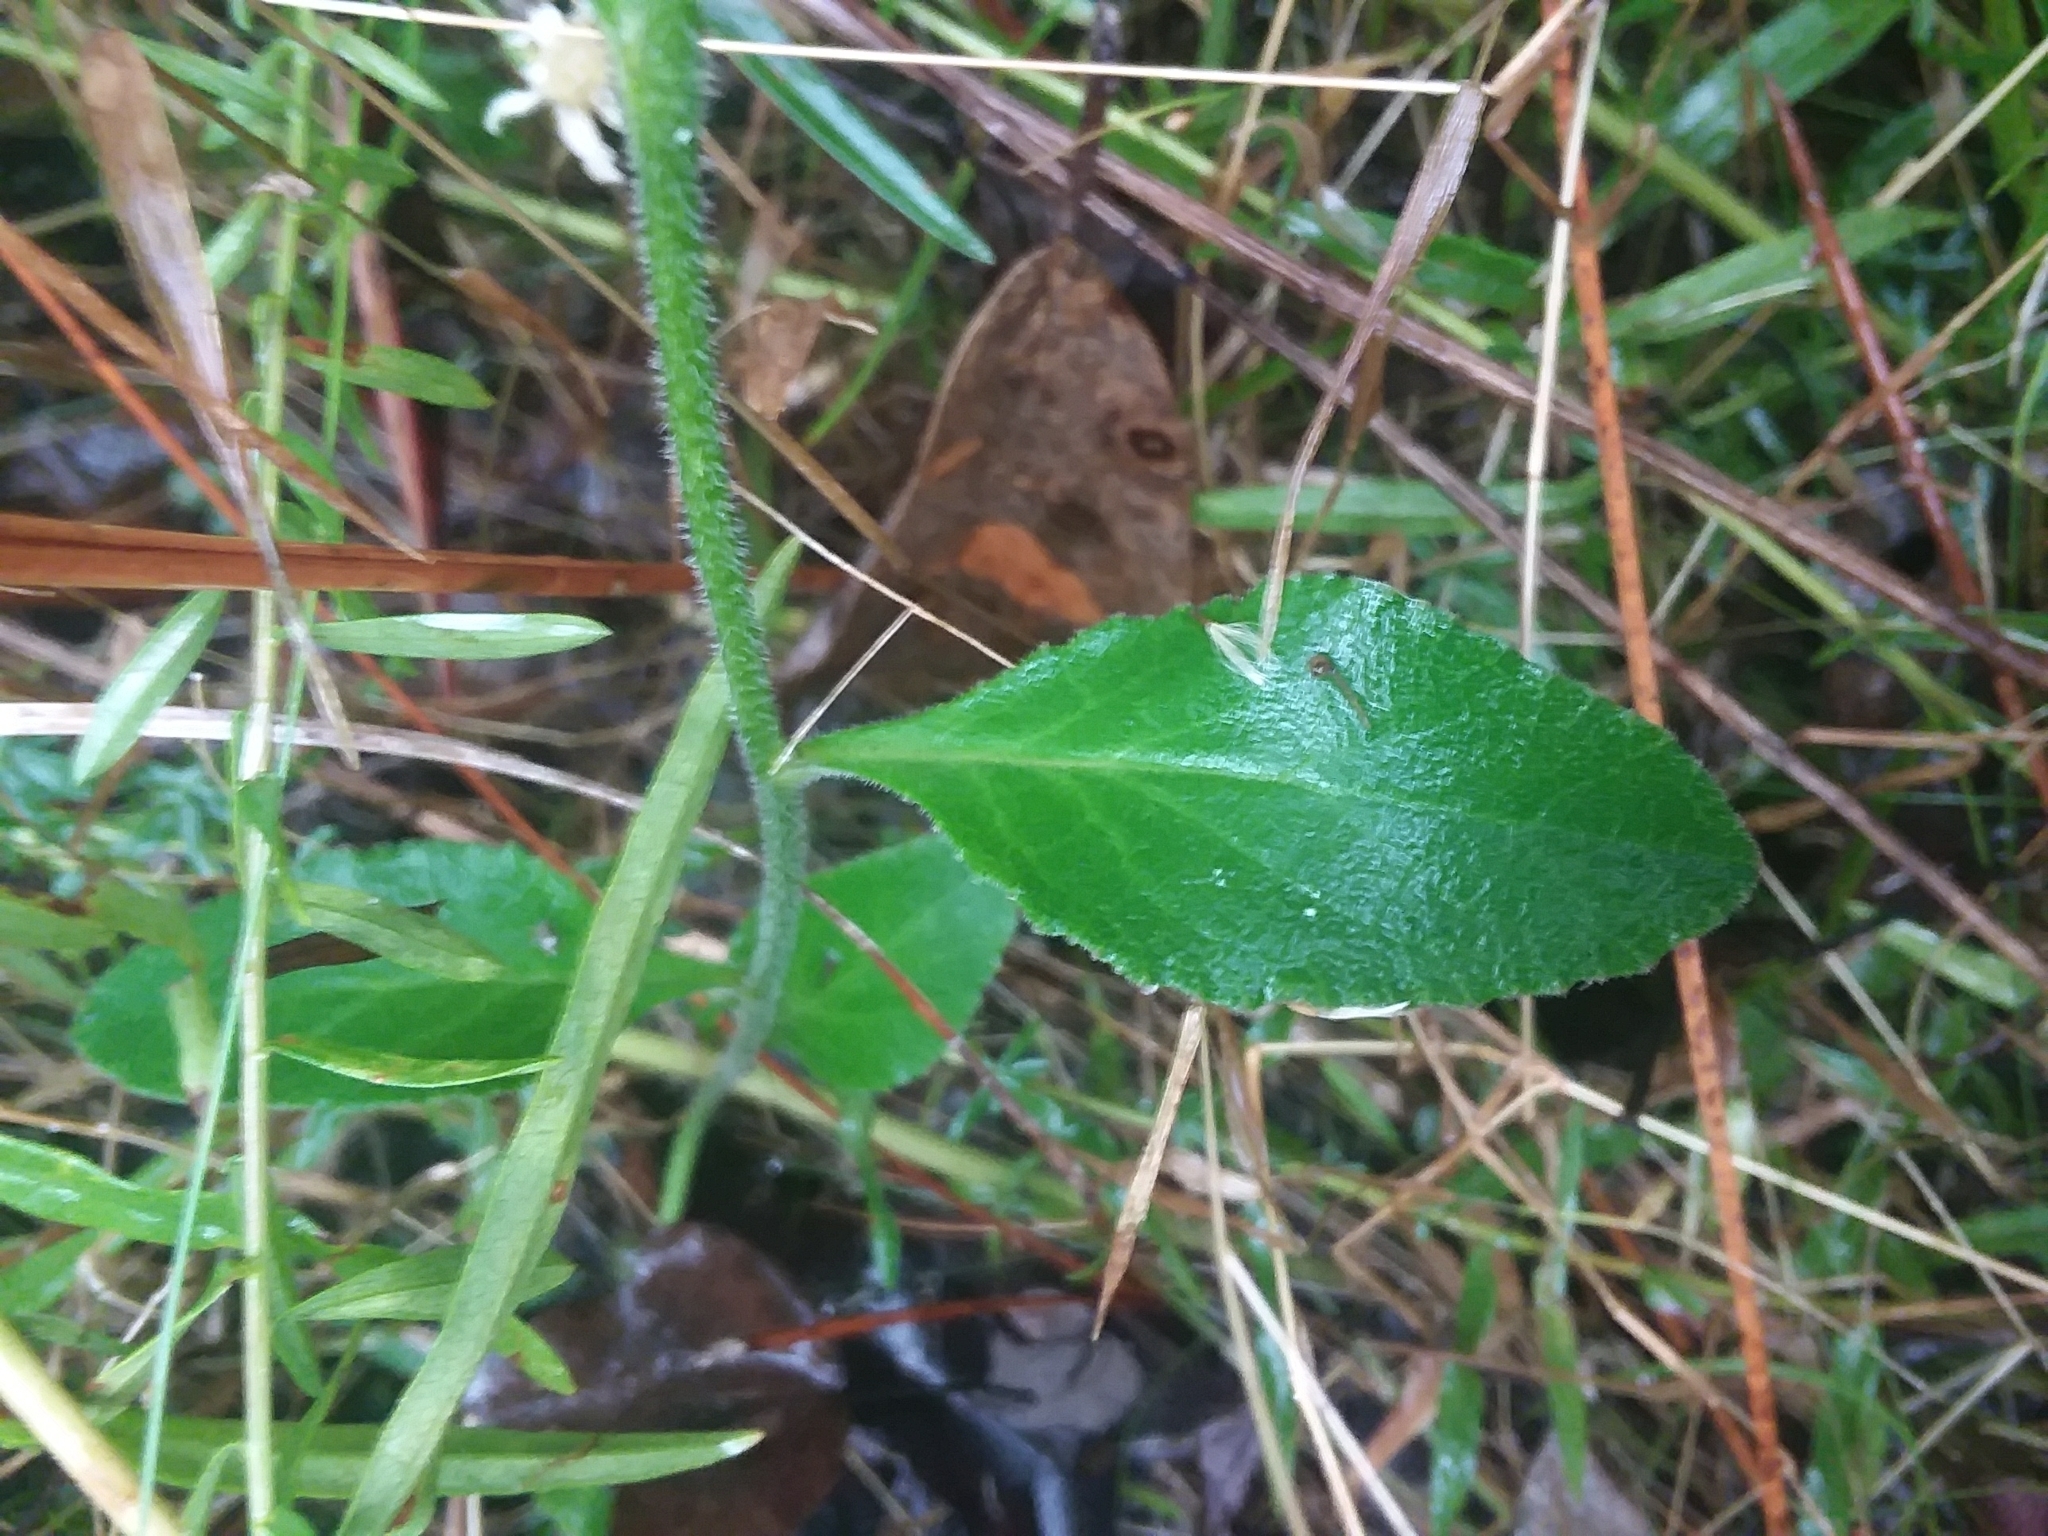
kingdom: Plantae
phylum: Tracheophyta
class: Magnoliopsida
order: Asterales
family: Campanulaceae
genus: Lobelia
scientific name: Lobelia rogersii
